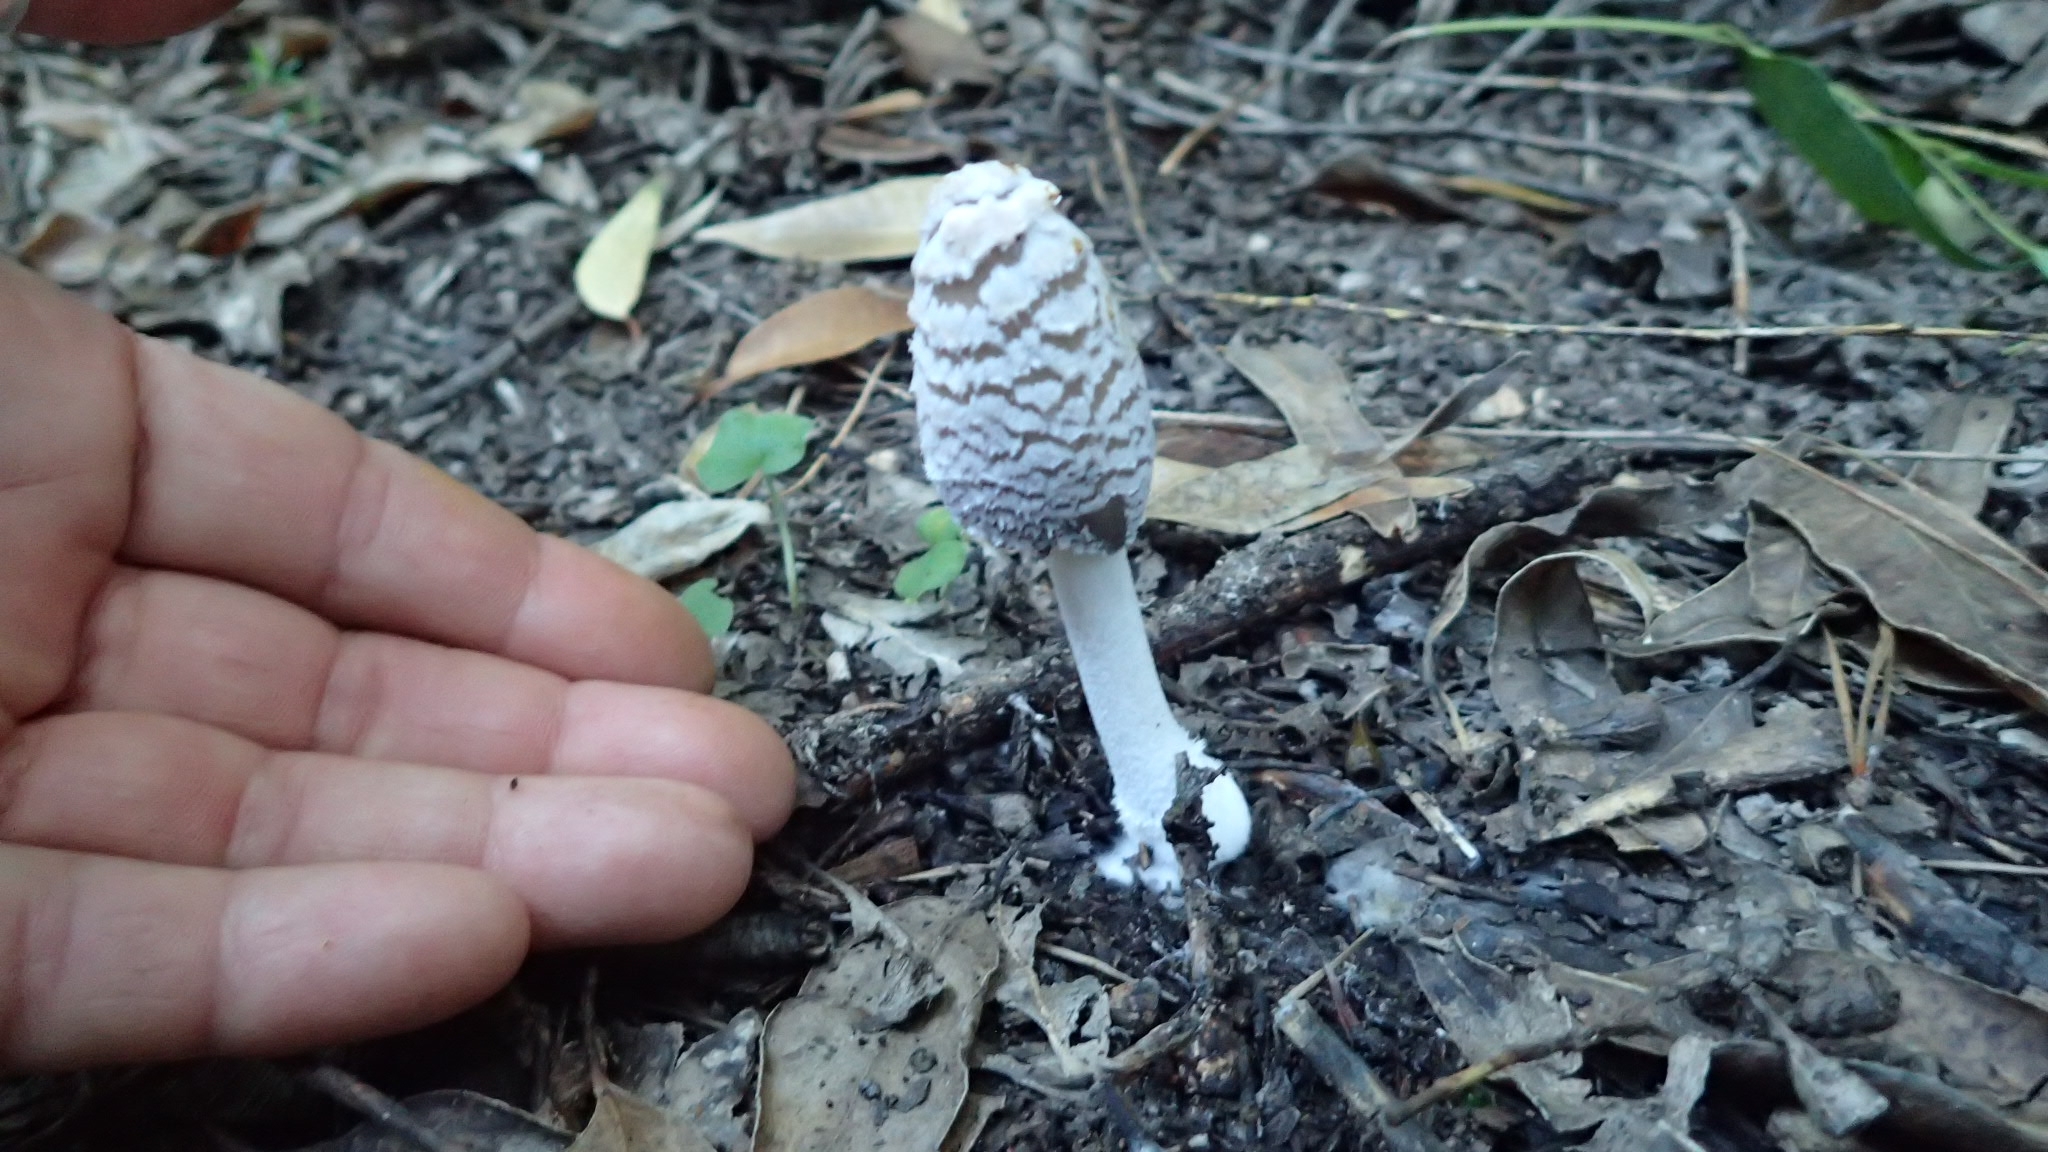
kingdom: Fungi
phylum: Basidiomycota
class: Agaricomycetes
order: Agaricales
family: Psathyrellaceae
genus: Coprinopsis
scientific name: Coprinopsis picacea
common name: Magpie inkcap
